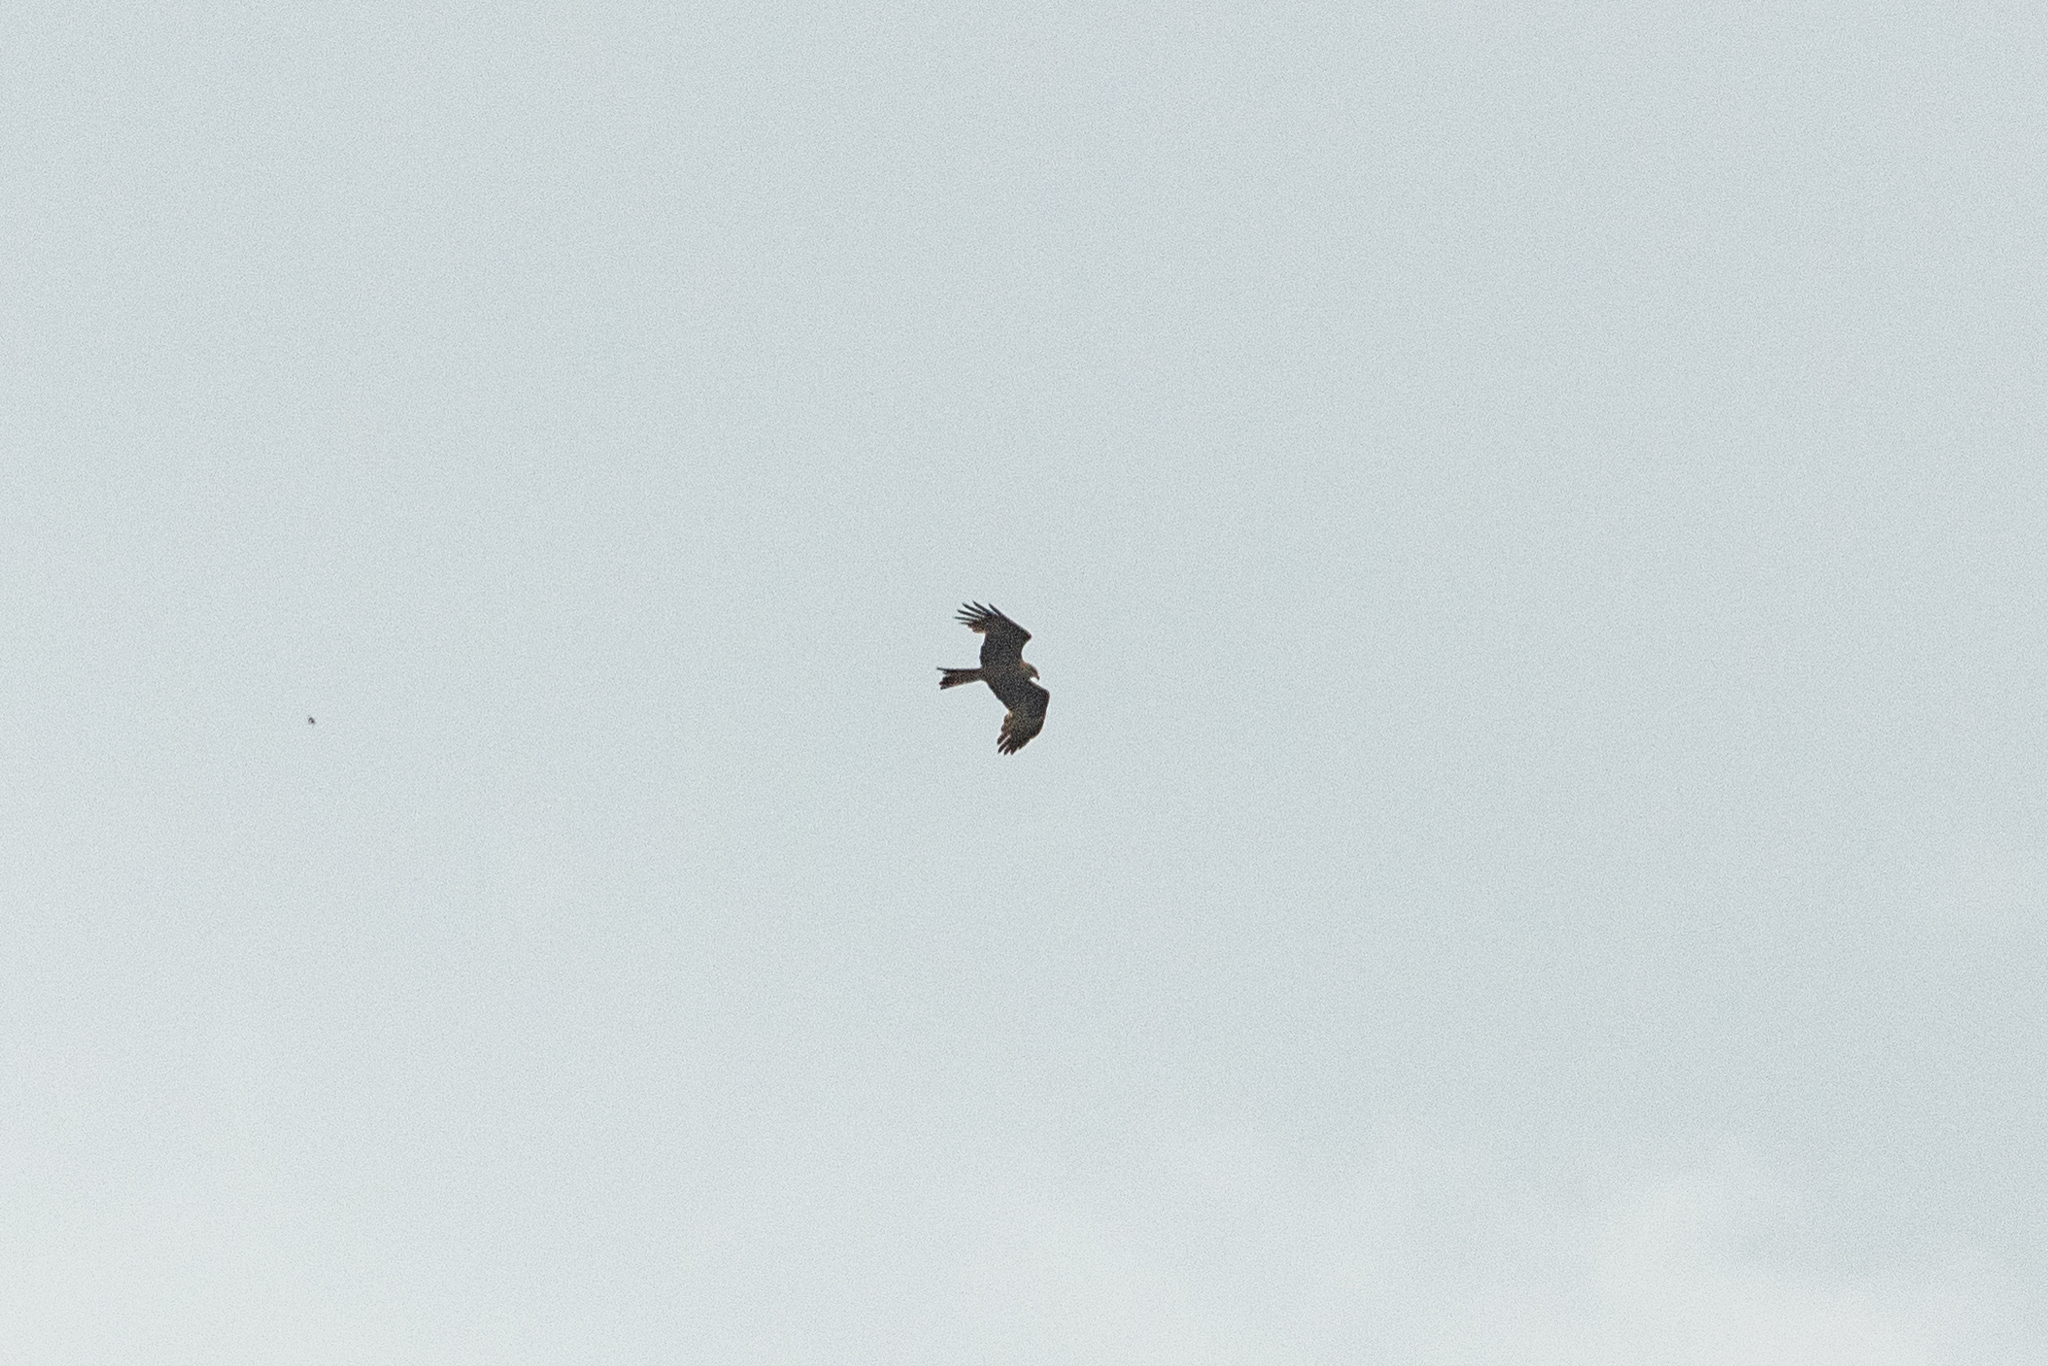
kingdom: Animalia
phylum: Chordata
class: Aves
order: Accipitriformes
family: Accipitridae
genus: Milvus
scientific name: Milvus migrans
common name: Black kite
